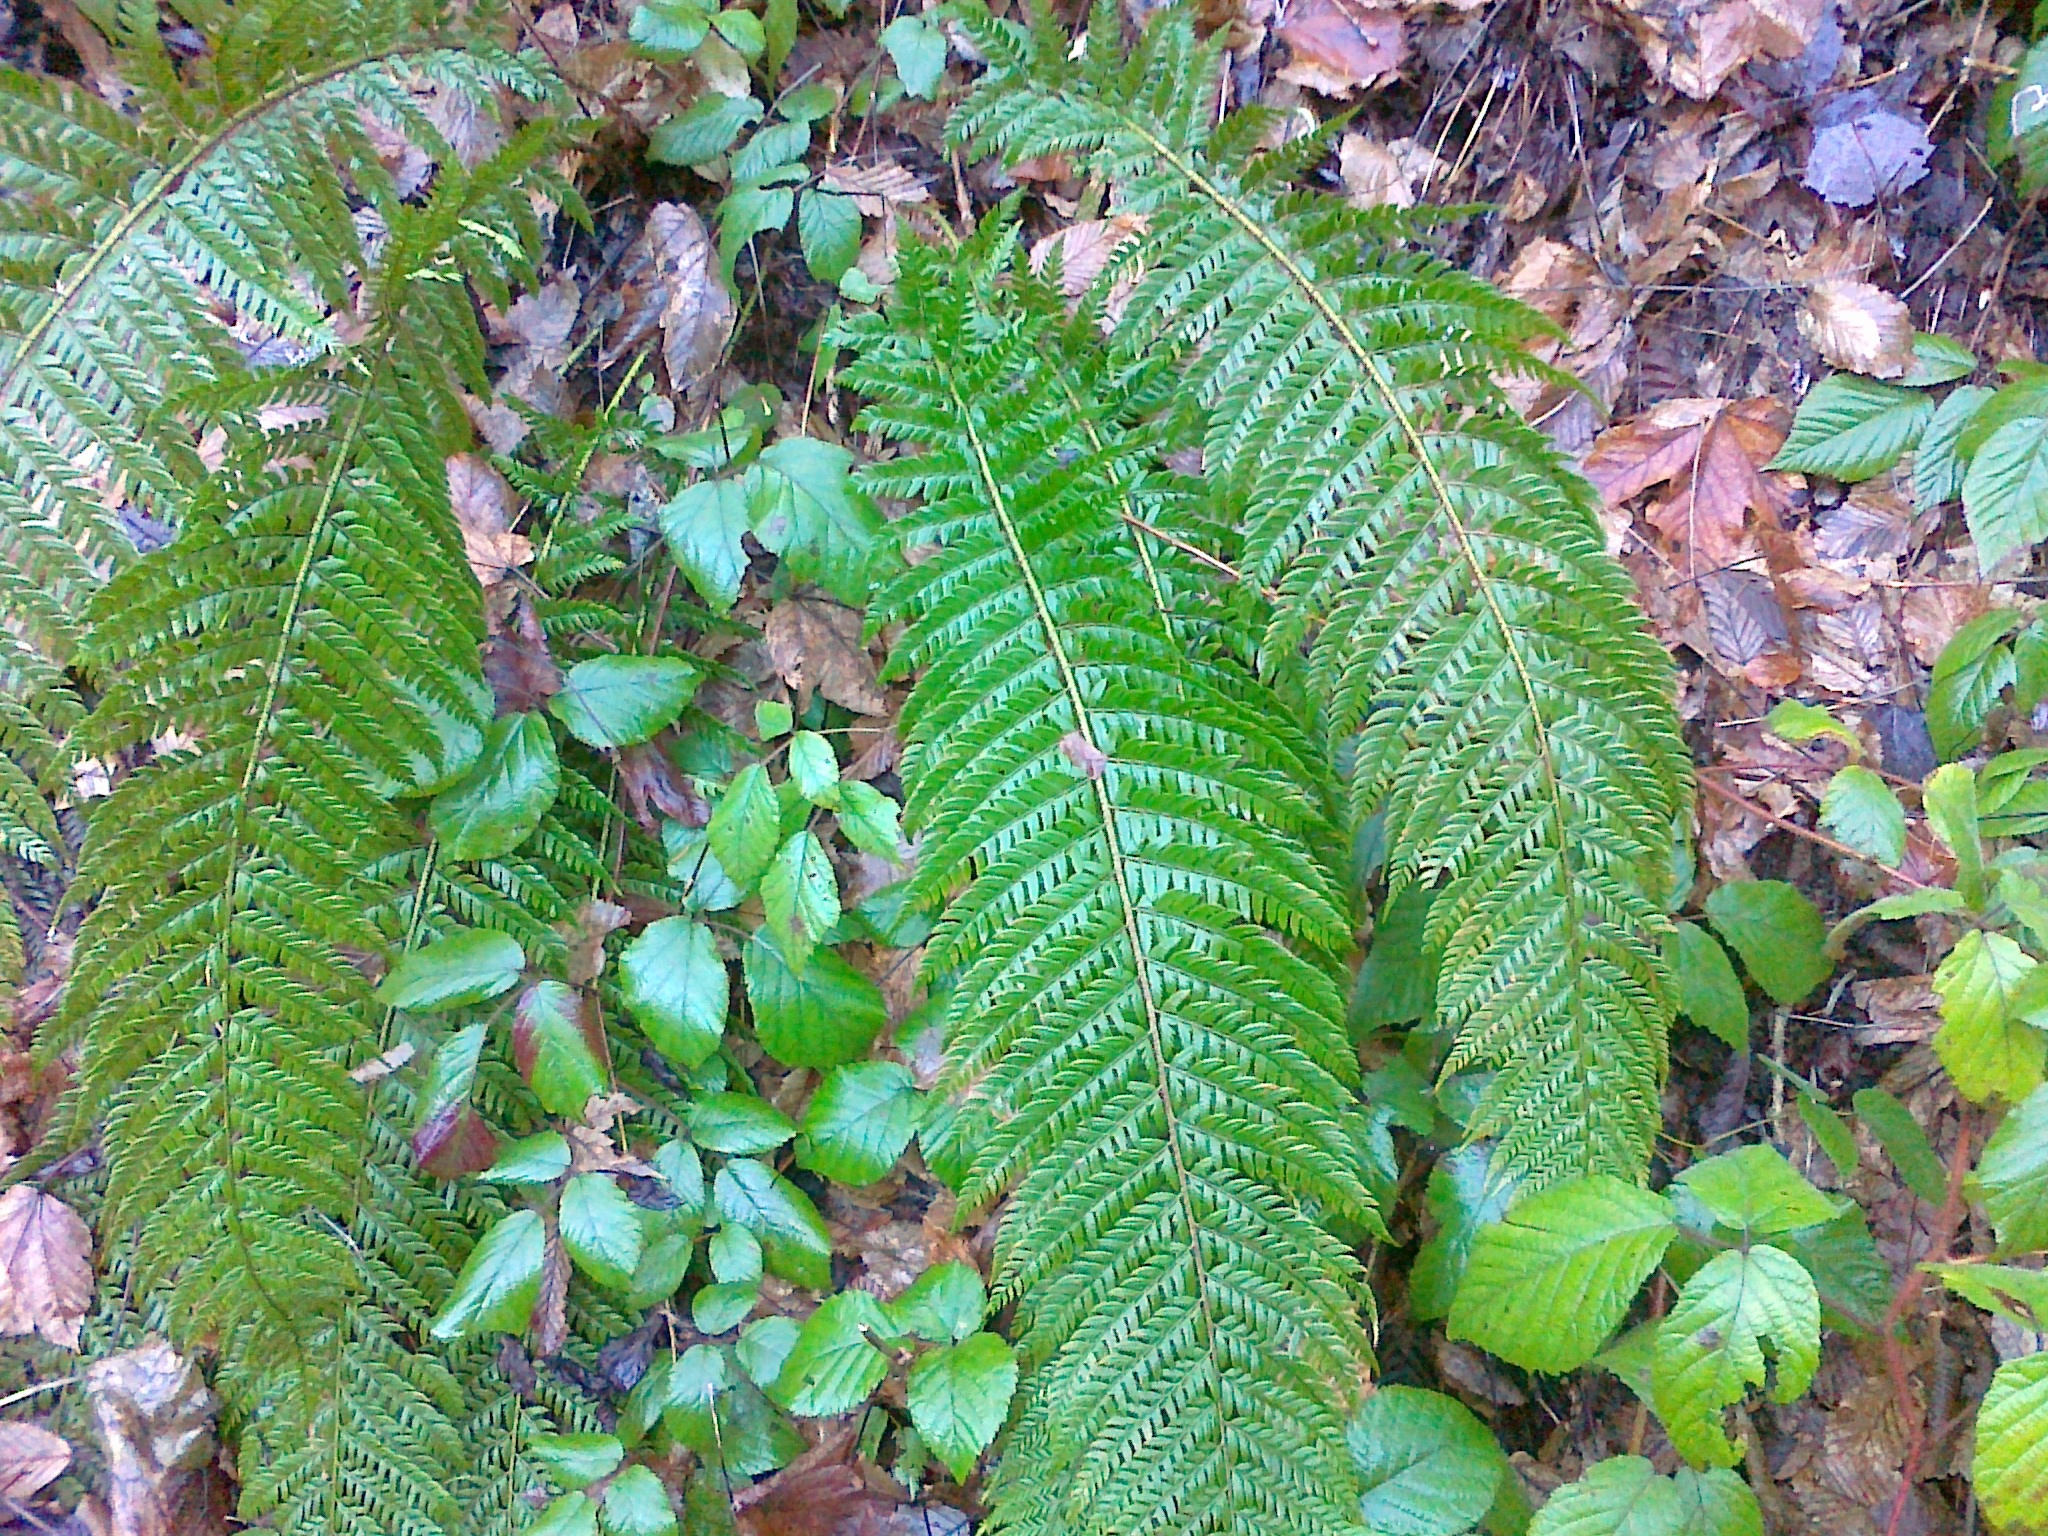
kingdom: Plantae
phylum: Tracheophyta
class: Polypodiopsida
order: Polypodiales
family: Dryopteridaceae
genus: Polystichum
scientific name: Polystichum aculeatum
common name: Hard shield-fern
